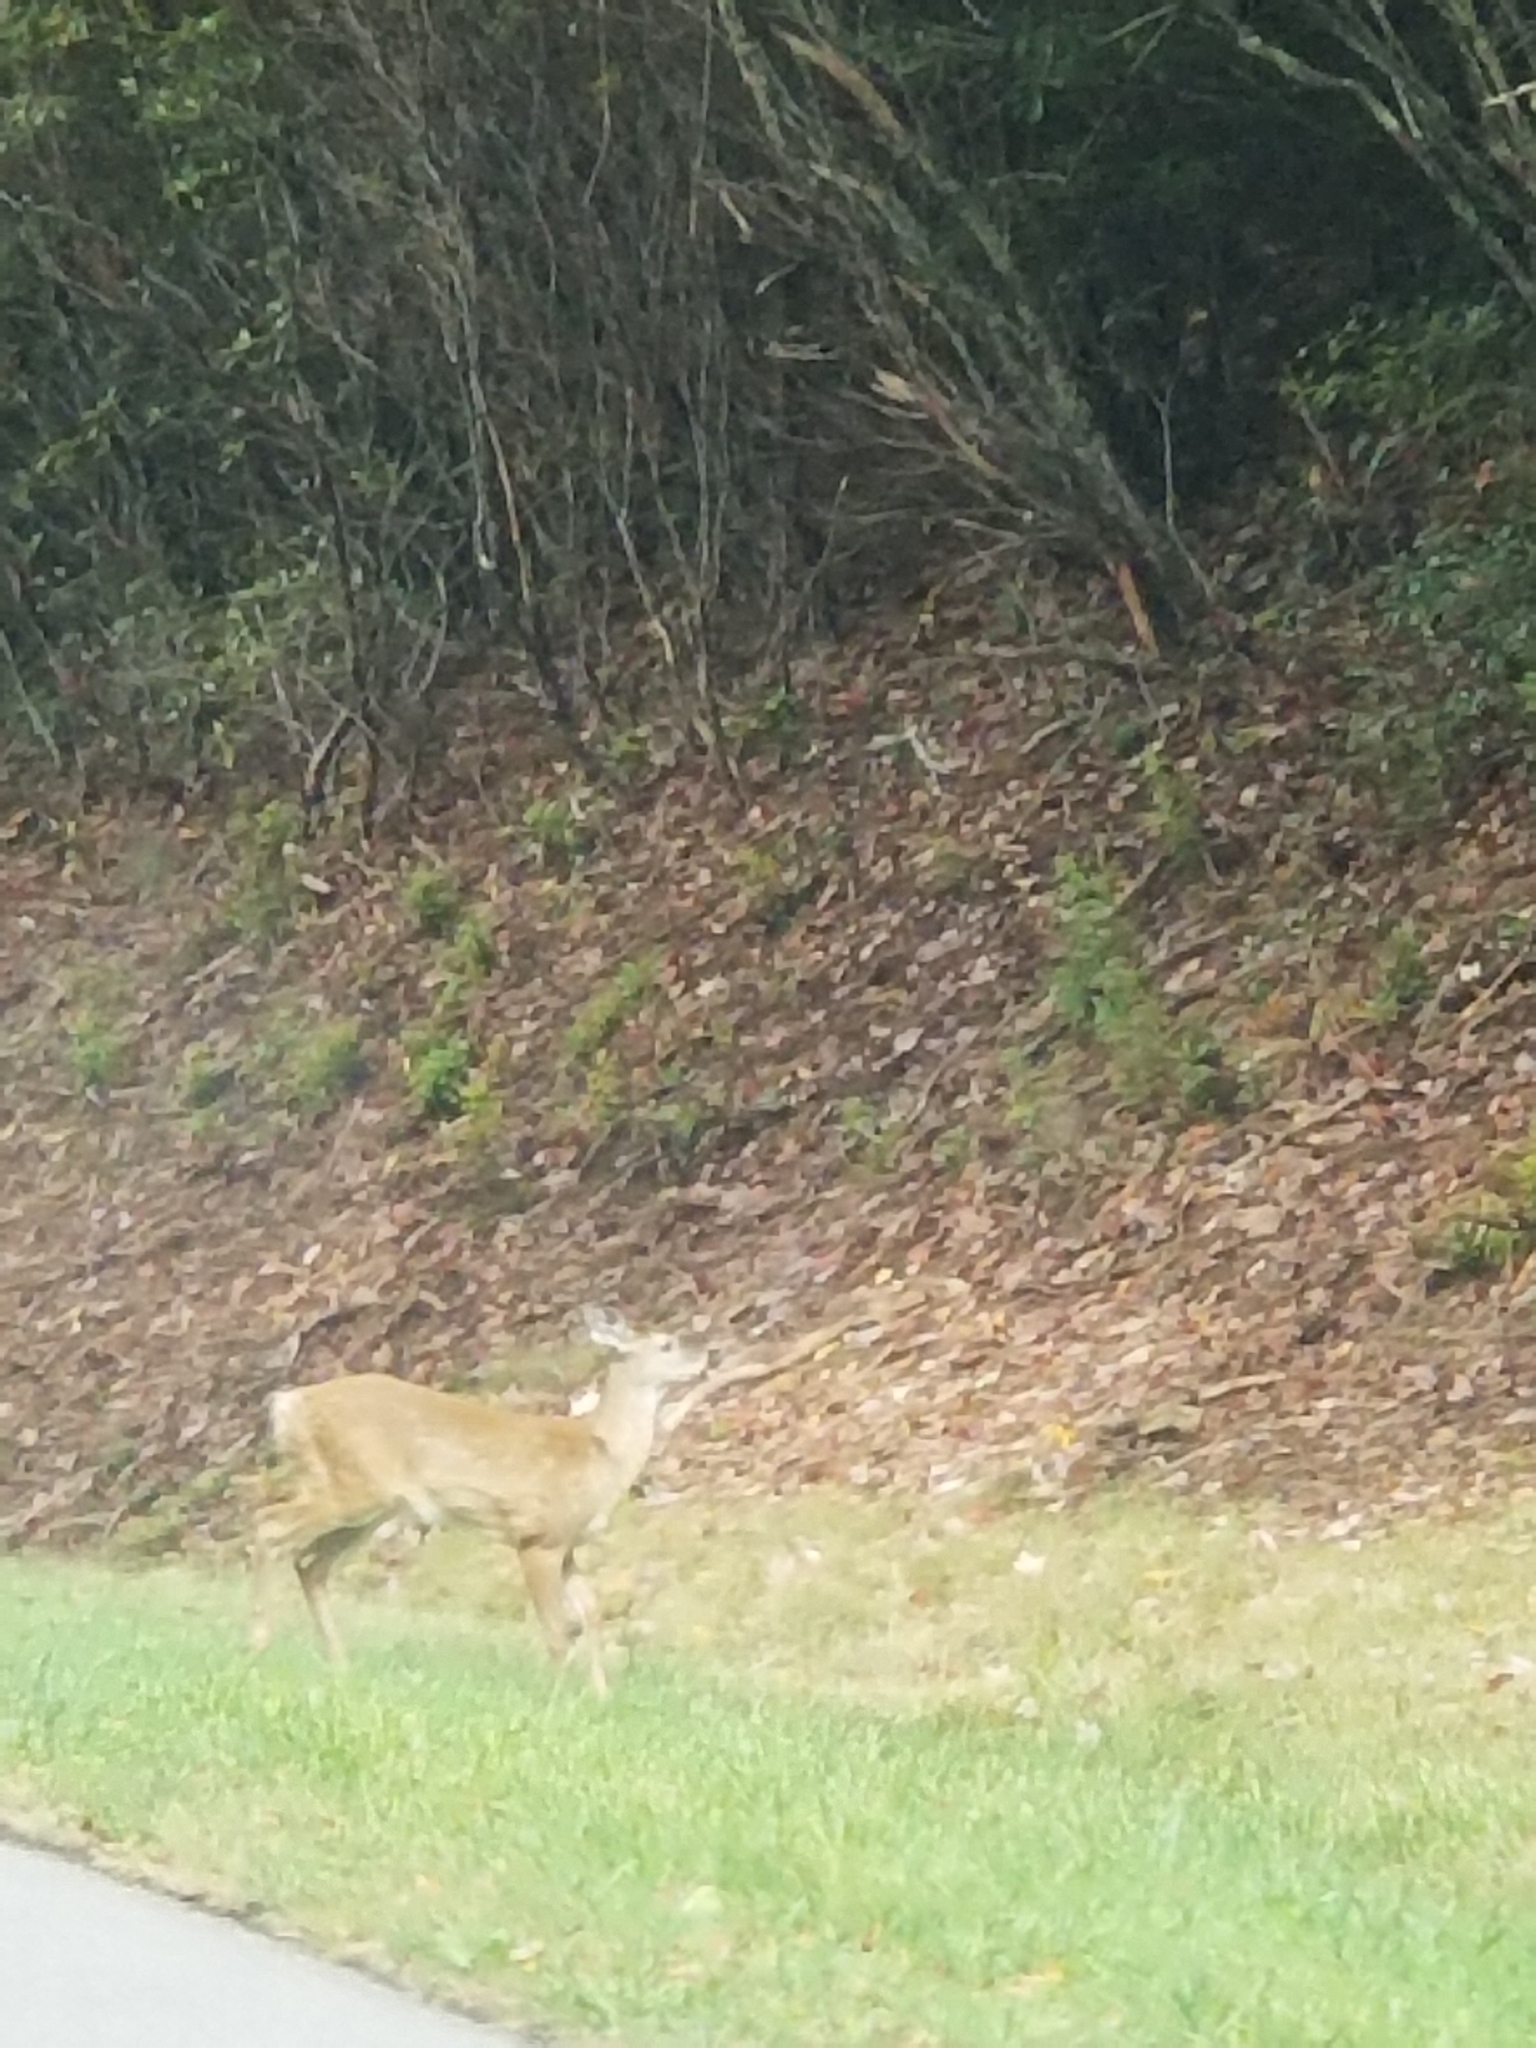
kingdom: Animalia
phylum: Chordata
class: Mammalia
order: Artiodactyla
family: Cervidae
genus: Odocoileus
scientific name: Odocoileus virginianus
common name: White-tailed deer
